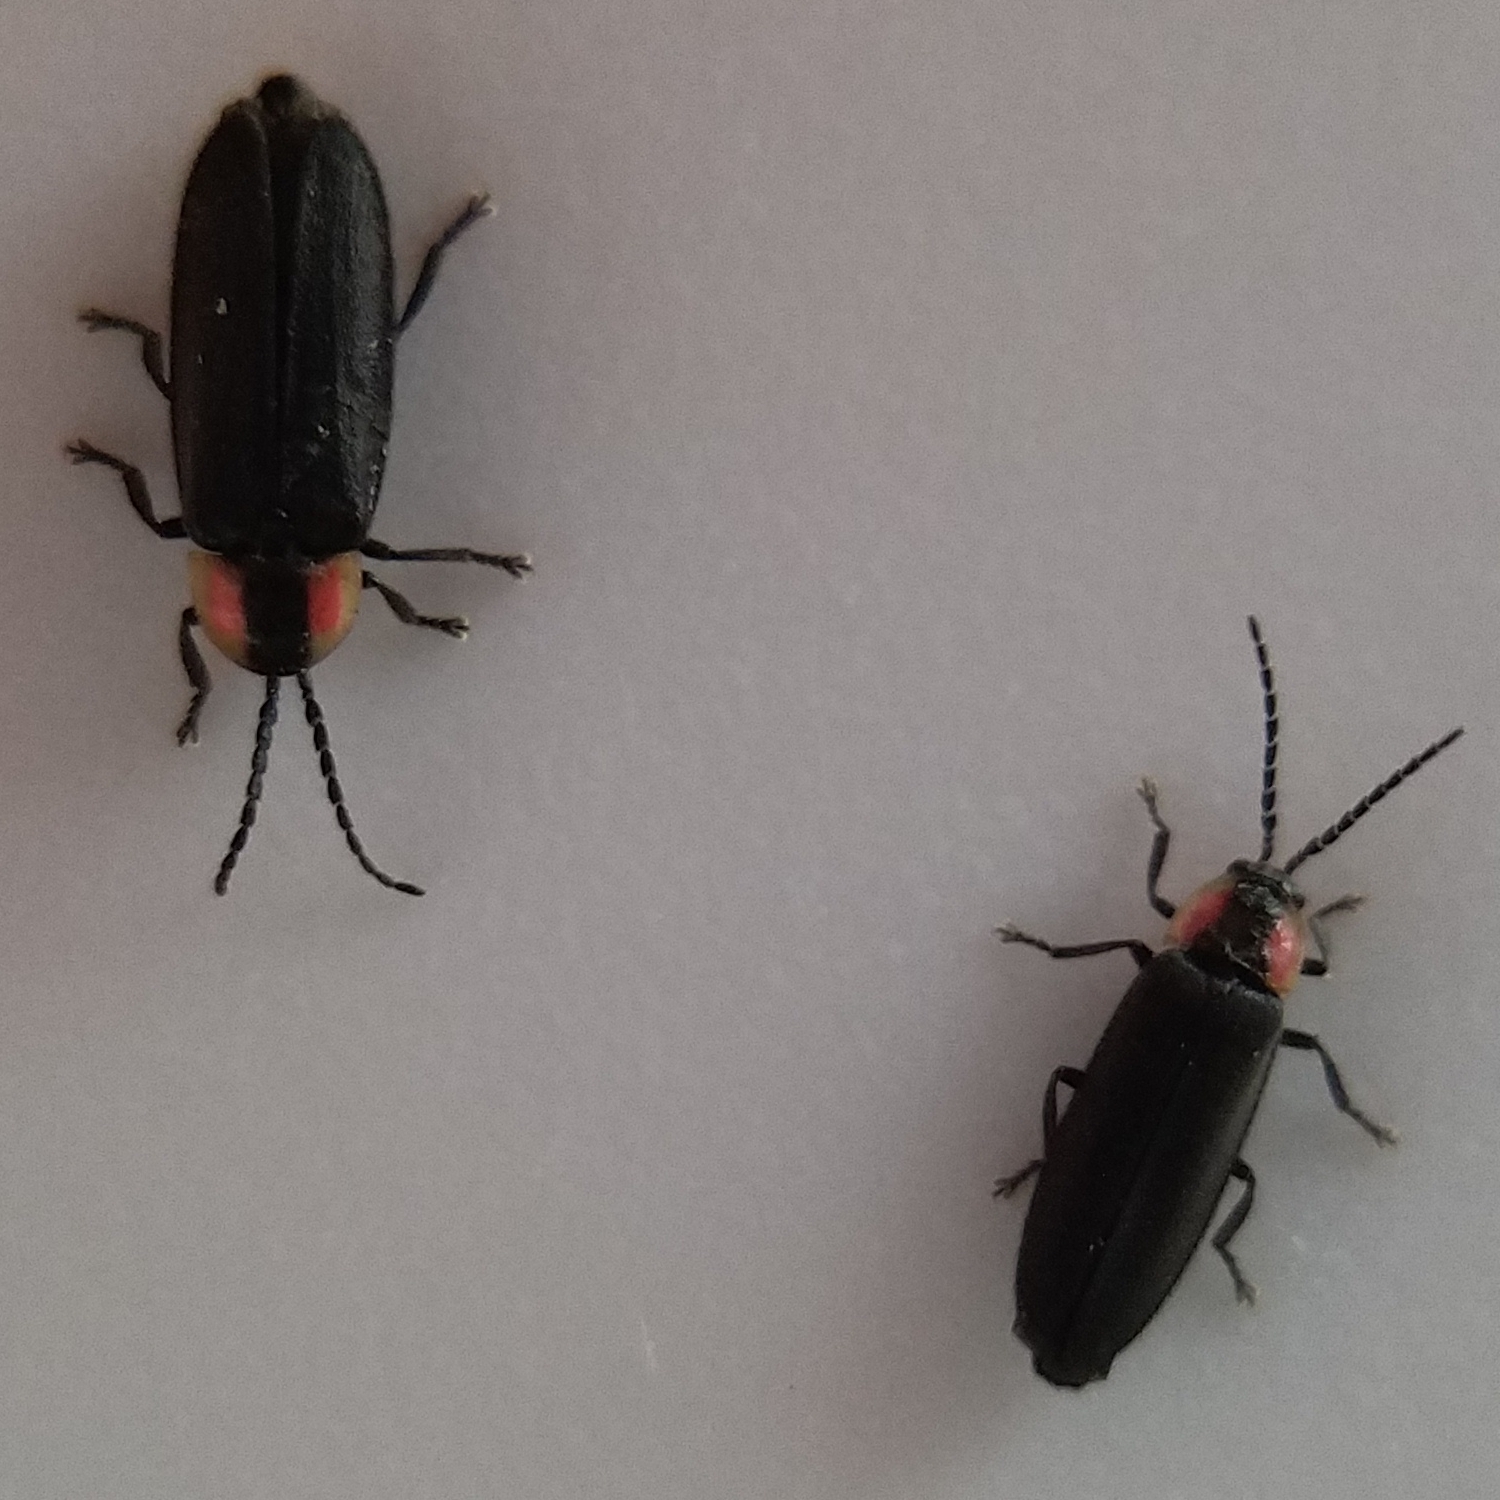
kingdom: Animalia
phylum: Arthropoda
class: Insecta
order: Coleoptera
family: Lampyridae
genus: Pyropyga
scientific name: Pyropyga minuta
